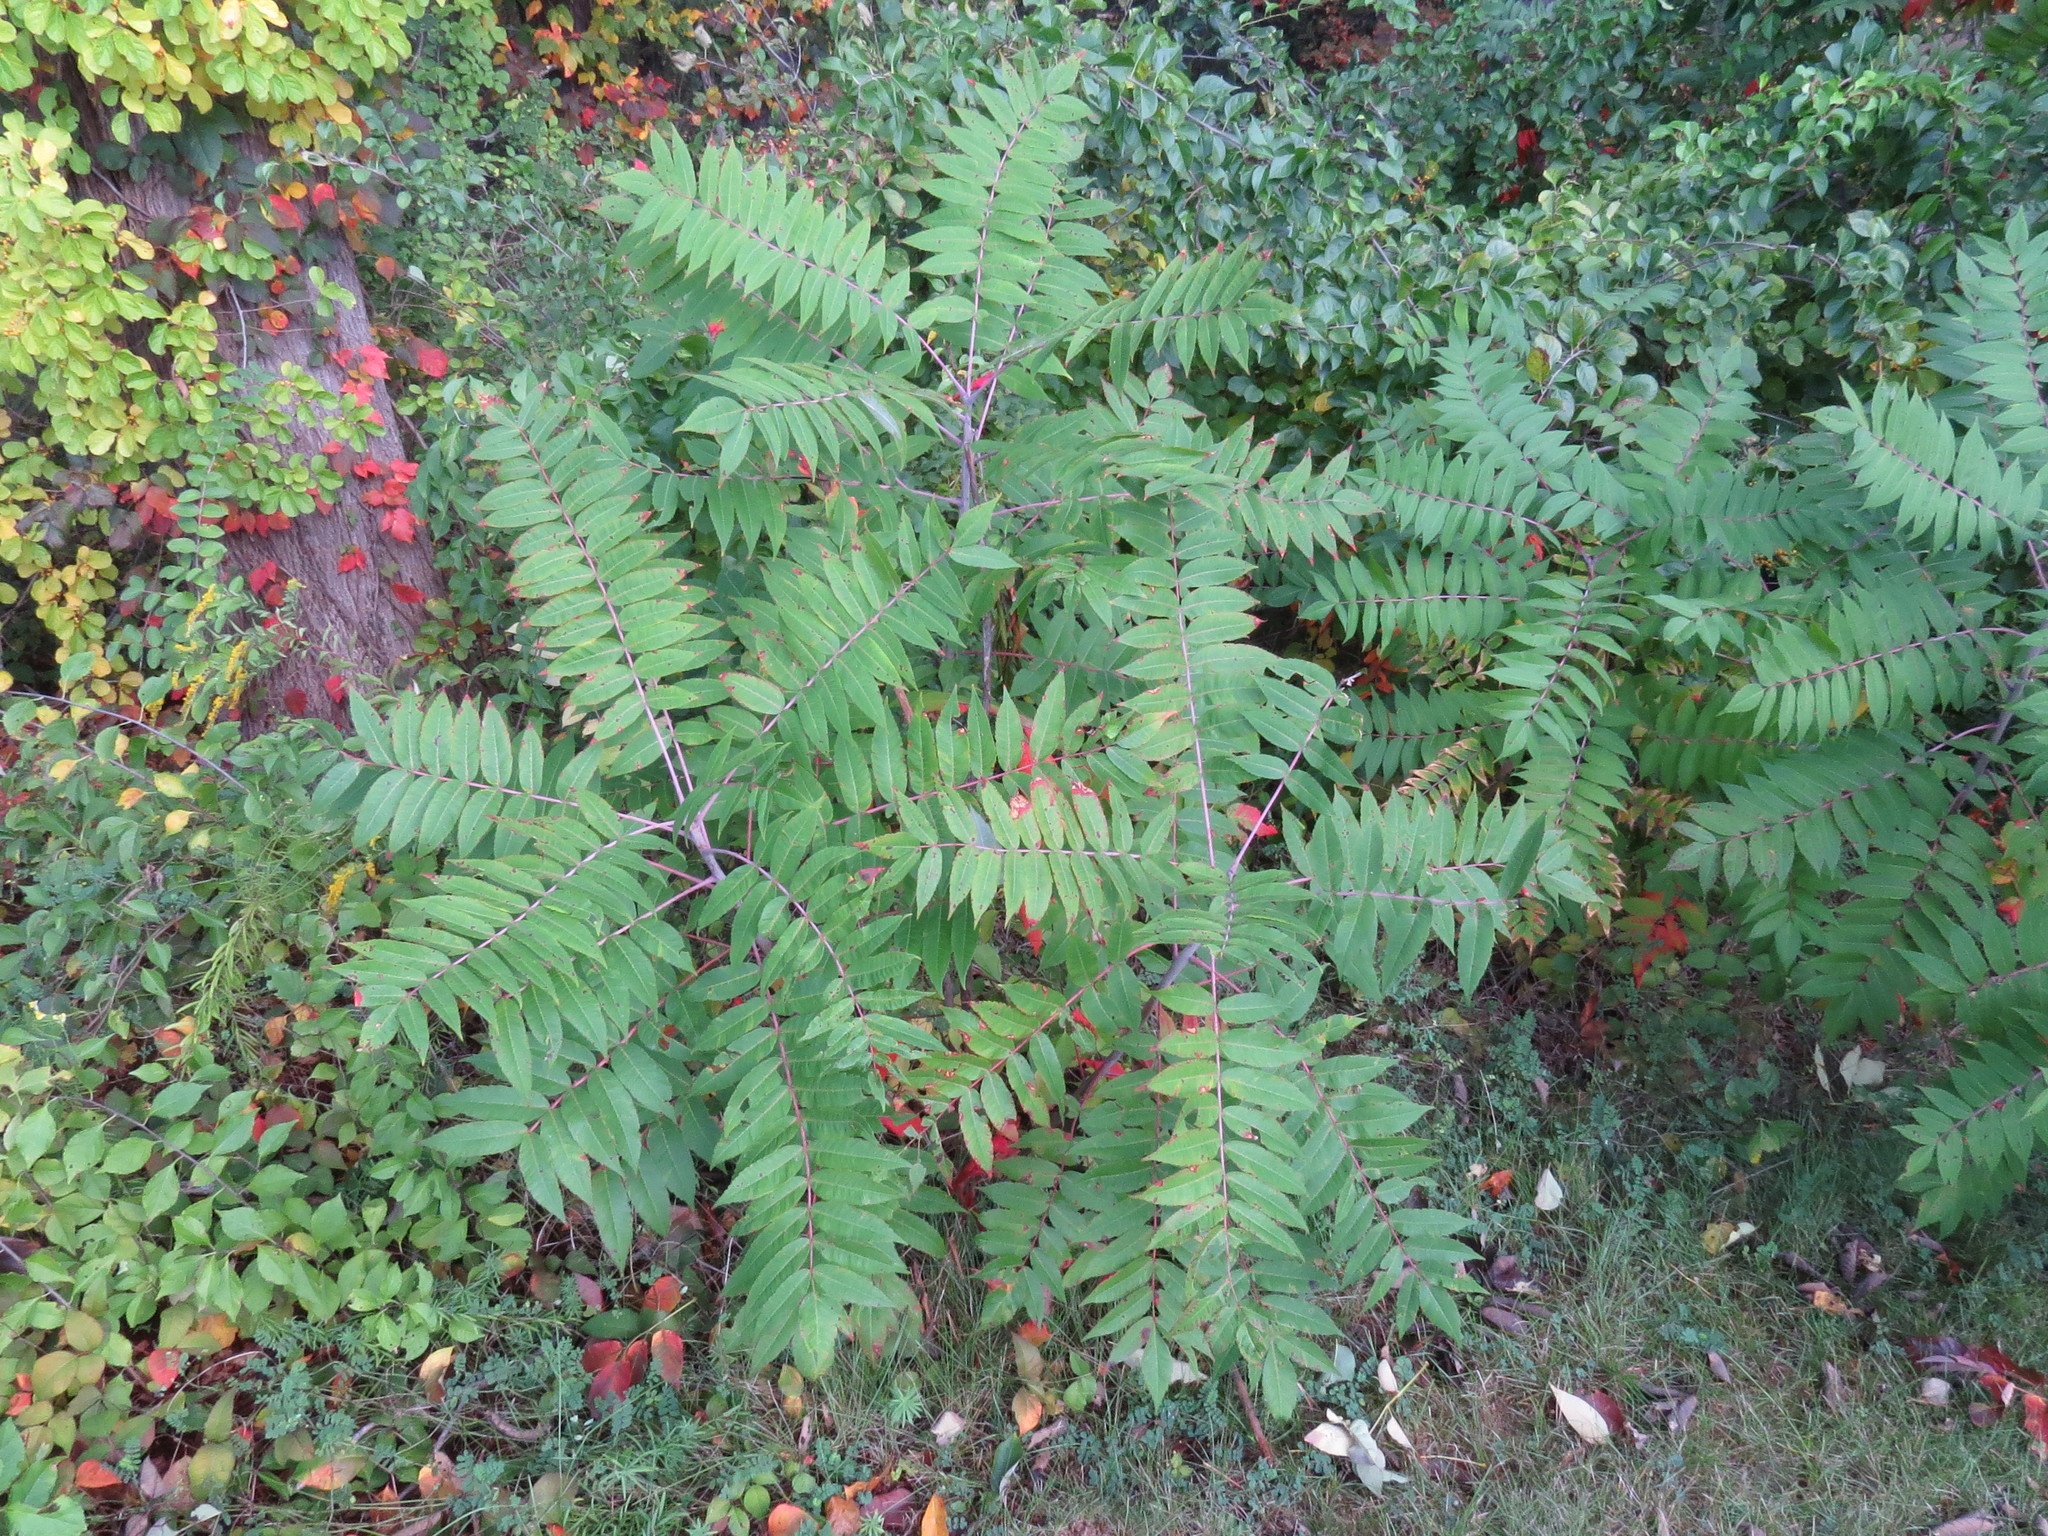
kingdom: Plantae
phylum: Tracheophyta
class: Magnoliopsida
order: Sapindales
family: Anacardiaceae
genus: Rhus
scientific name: Rhus glabra
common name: Scarlet sumac
